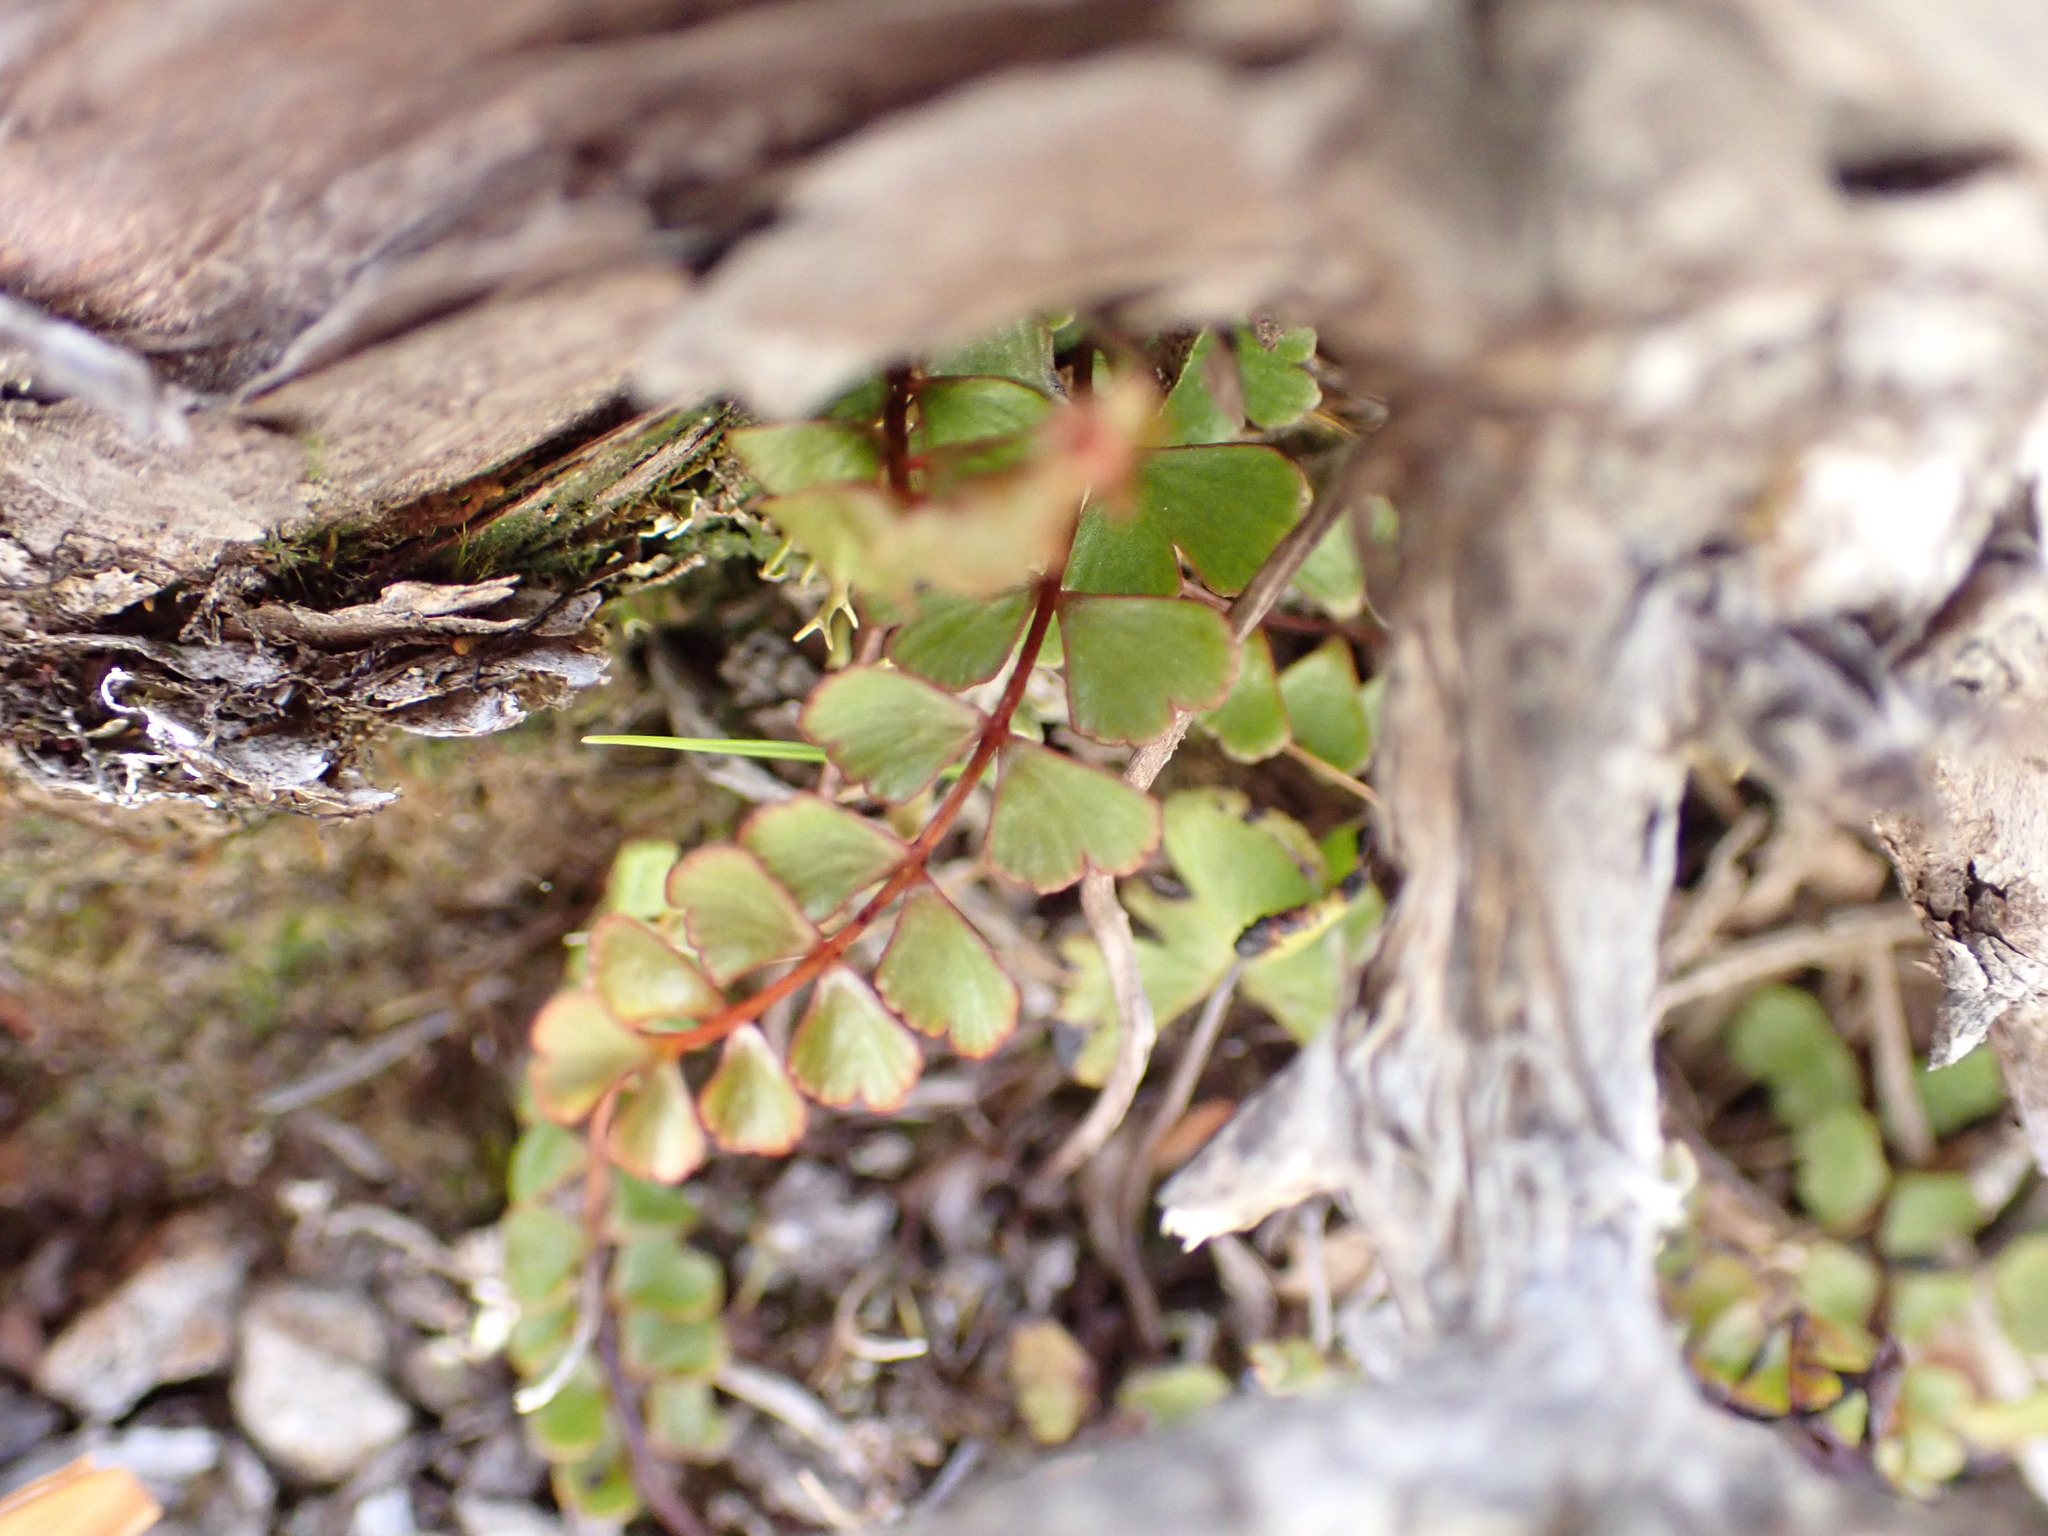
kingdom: Plantae
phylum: Tracheophyta
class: Polypodiopsida
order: Polypodiales
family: Lindsaeaceae
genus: Lindsaea
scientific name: Lindsaea linearis
